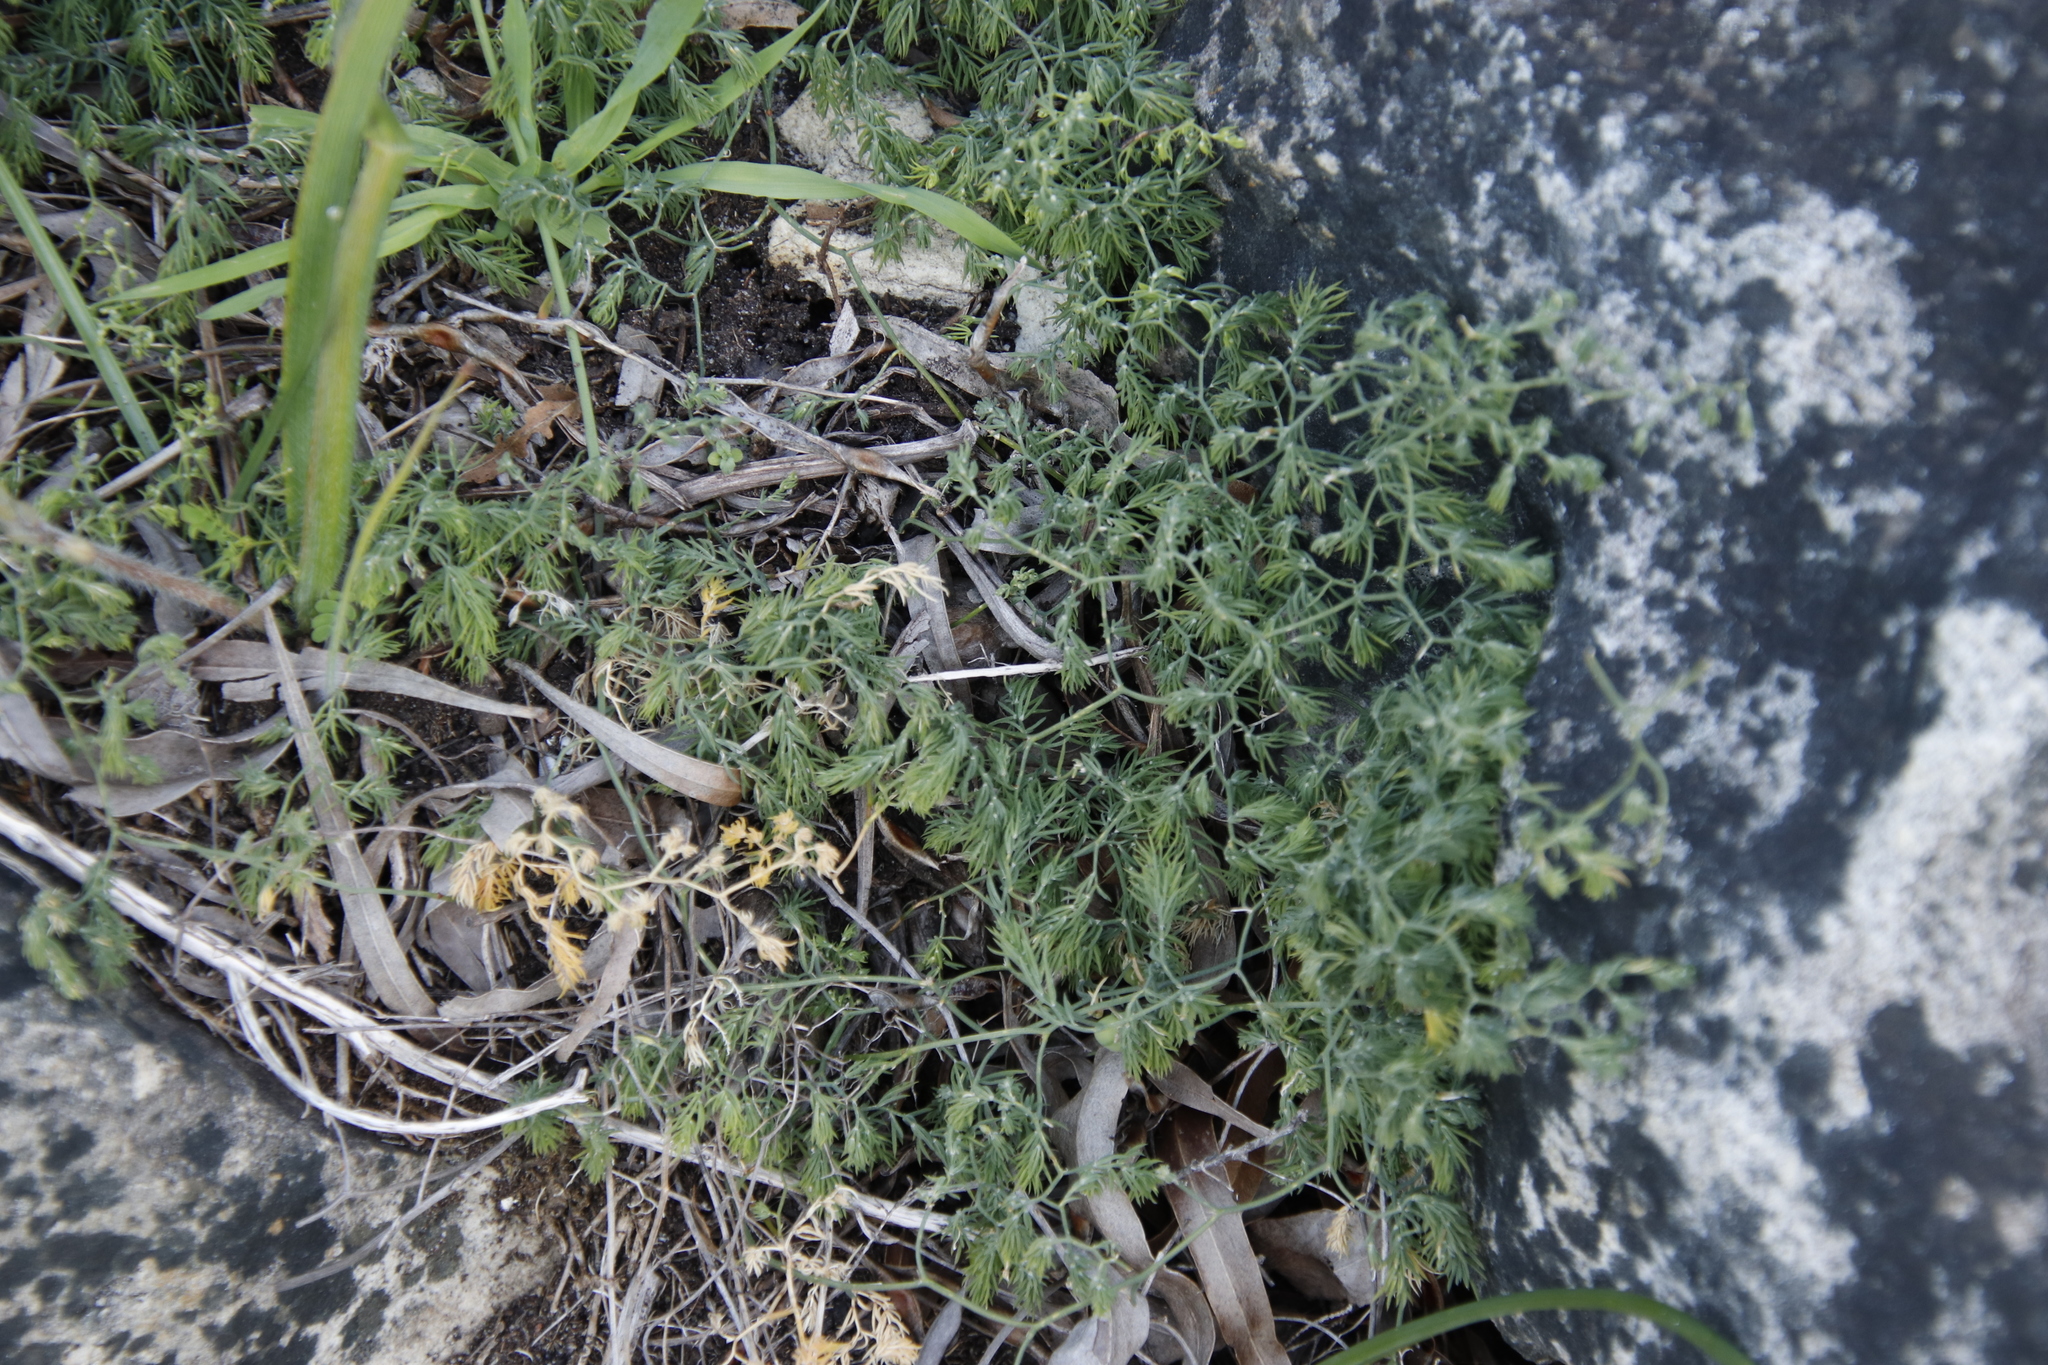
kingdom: Plantae
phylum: Tracheophyta
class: Liliopsida
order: Asparagales
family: Asparagaceae
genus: Asparagus
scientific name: Asparagus declinatus
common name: Bridal-creeper
